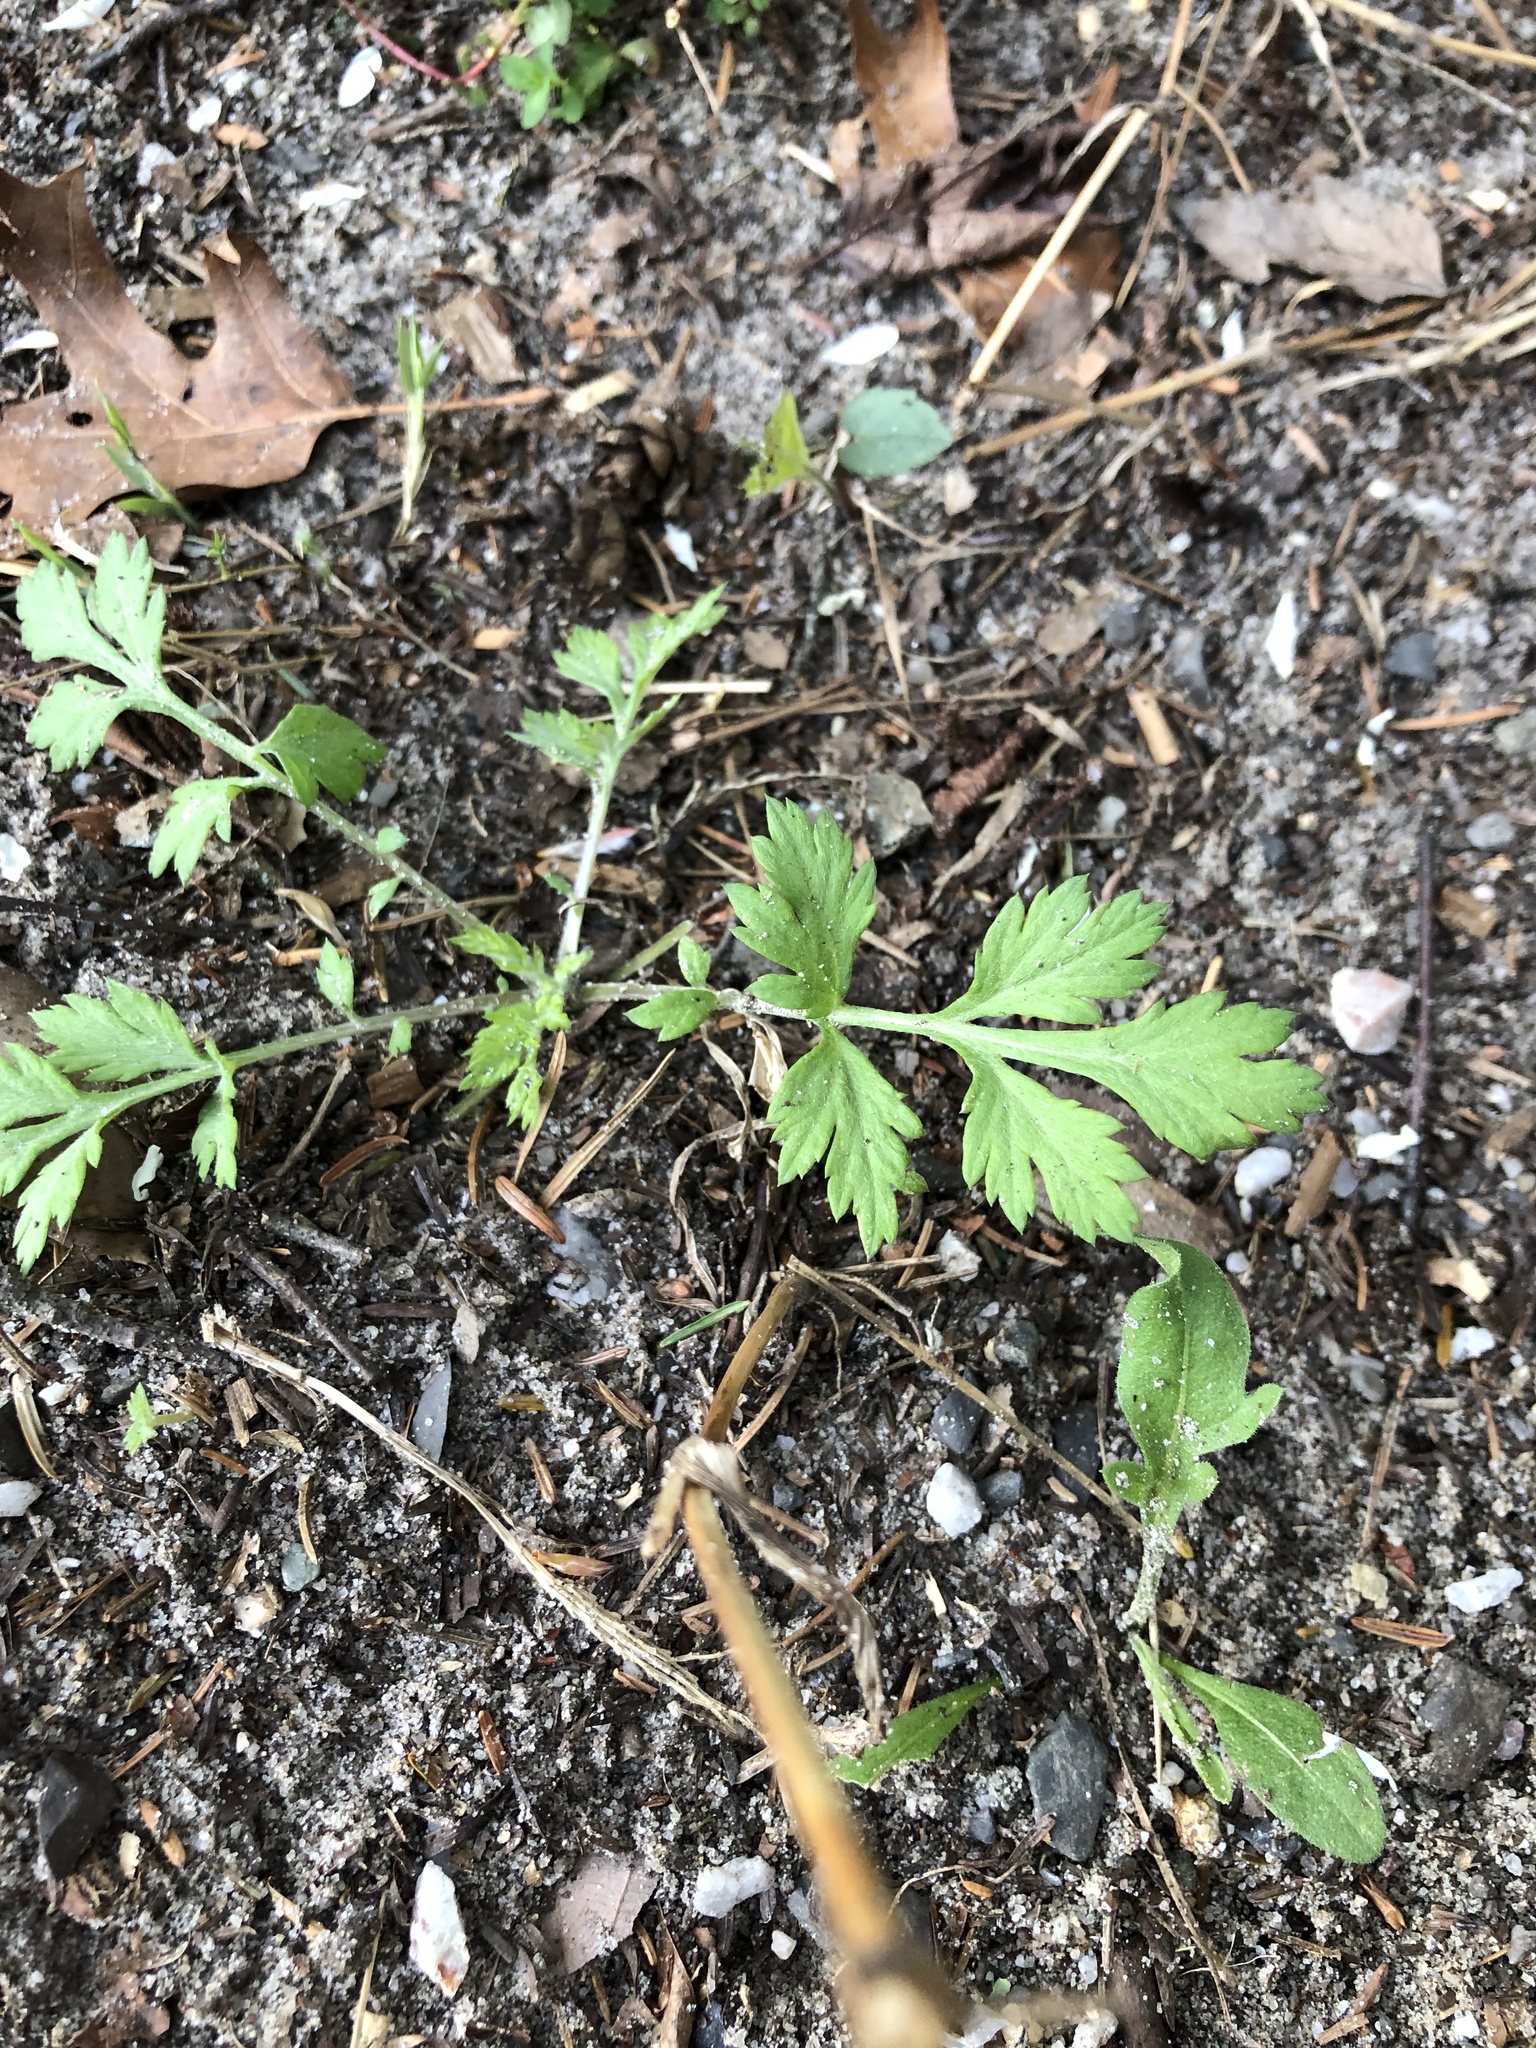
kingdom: Plantae
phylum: Tracheophyta
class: Magnoliopsida
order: Asterales
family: Asteraceae
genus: Artemisia
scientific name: Artemisia vulgaris
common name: Mugwort
